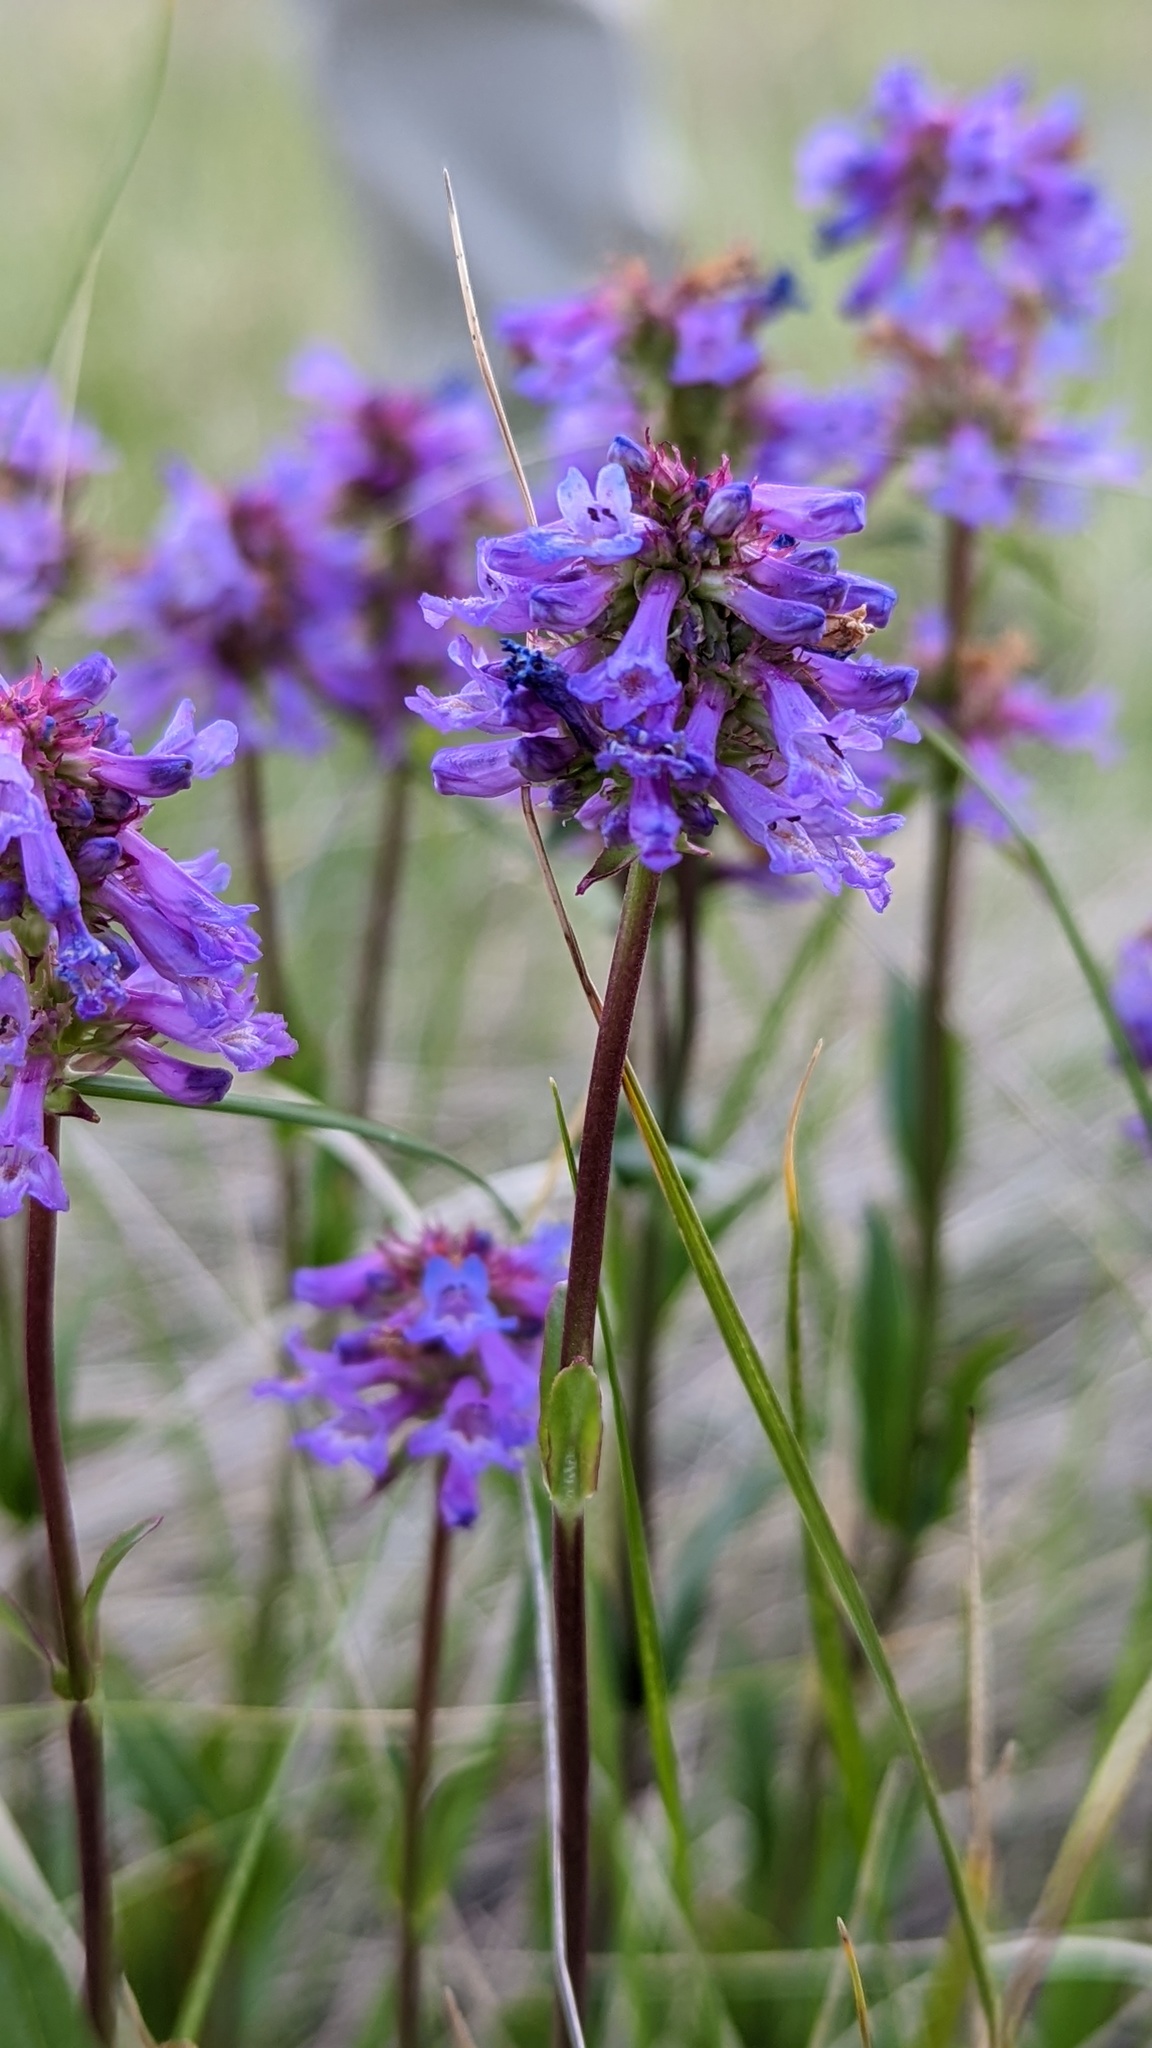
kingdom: Plantae
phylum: Tracheophyta
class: Magnoliopsida
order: Lamiales
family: Plantaginaceae
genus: Penstemon
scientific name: Penstemon procerus
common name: Small-flower penstemon
